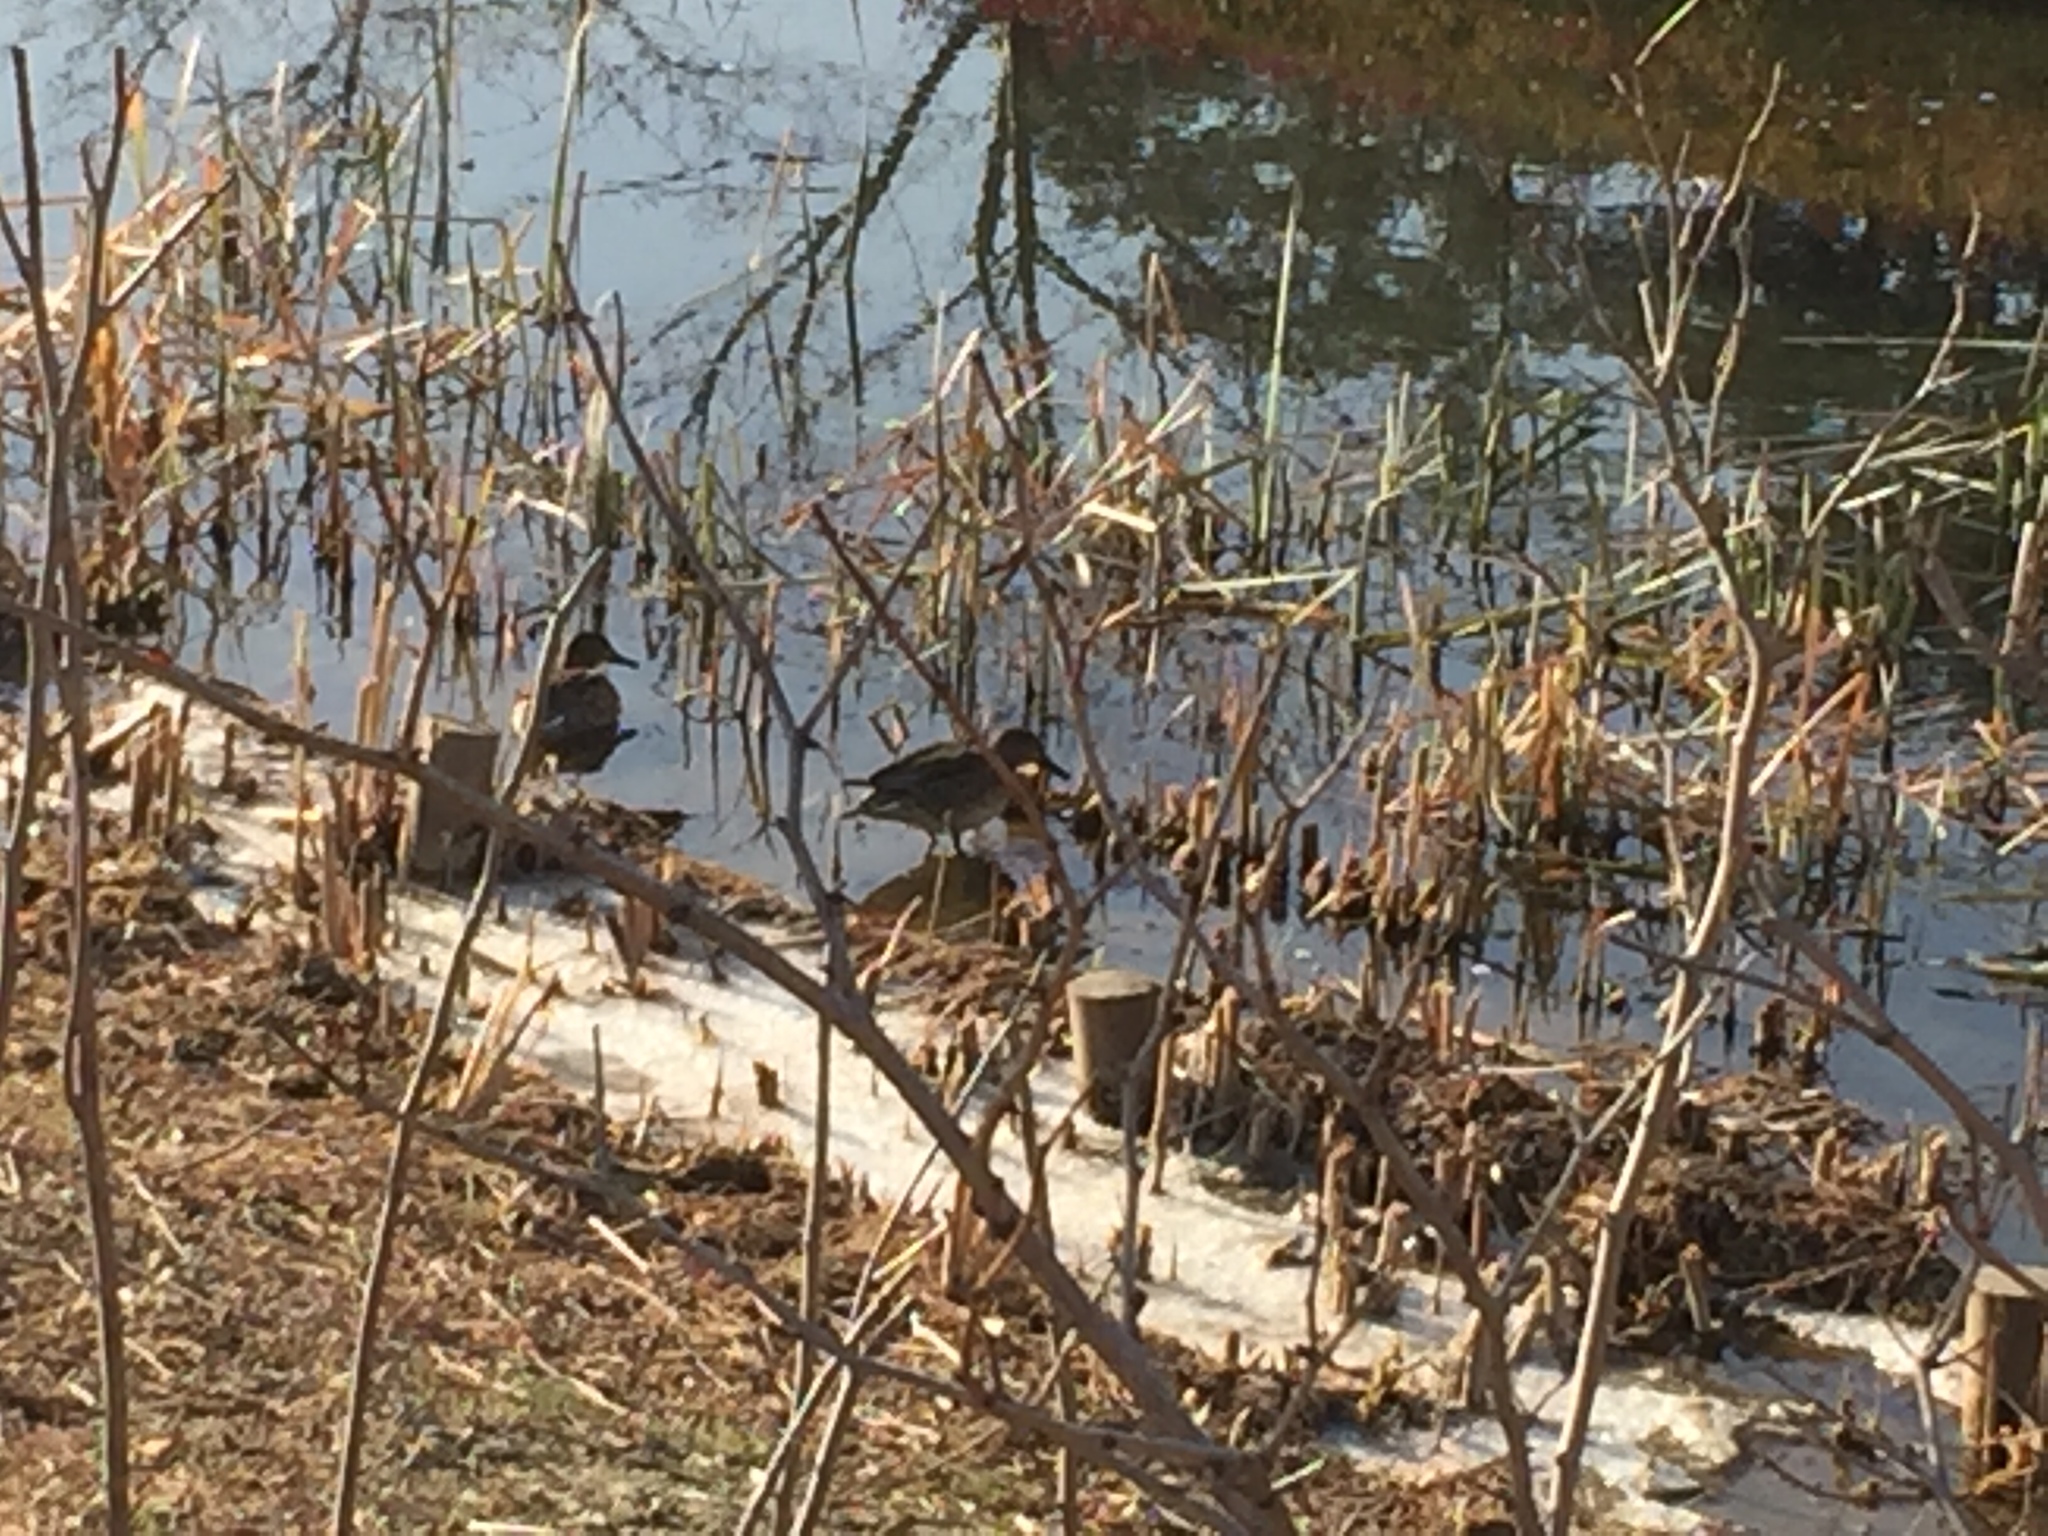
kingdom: Animalia
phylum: Chordata
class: Aves
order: Anseriformes
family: Anatidae
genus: Anas
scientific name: Anas crecca
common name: Eurasian teal
